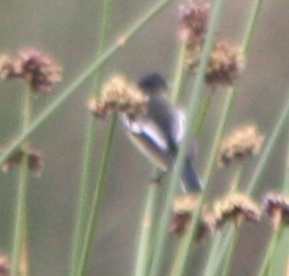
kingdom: Animalia
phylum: Chordata
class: Aves
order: Passeriformes
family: Tyrannidae
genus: Tachuris
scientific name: Tachuris rubrigastra
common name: Many-colored rush tyrant
